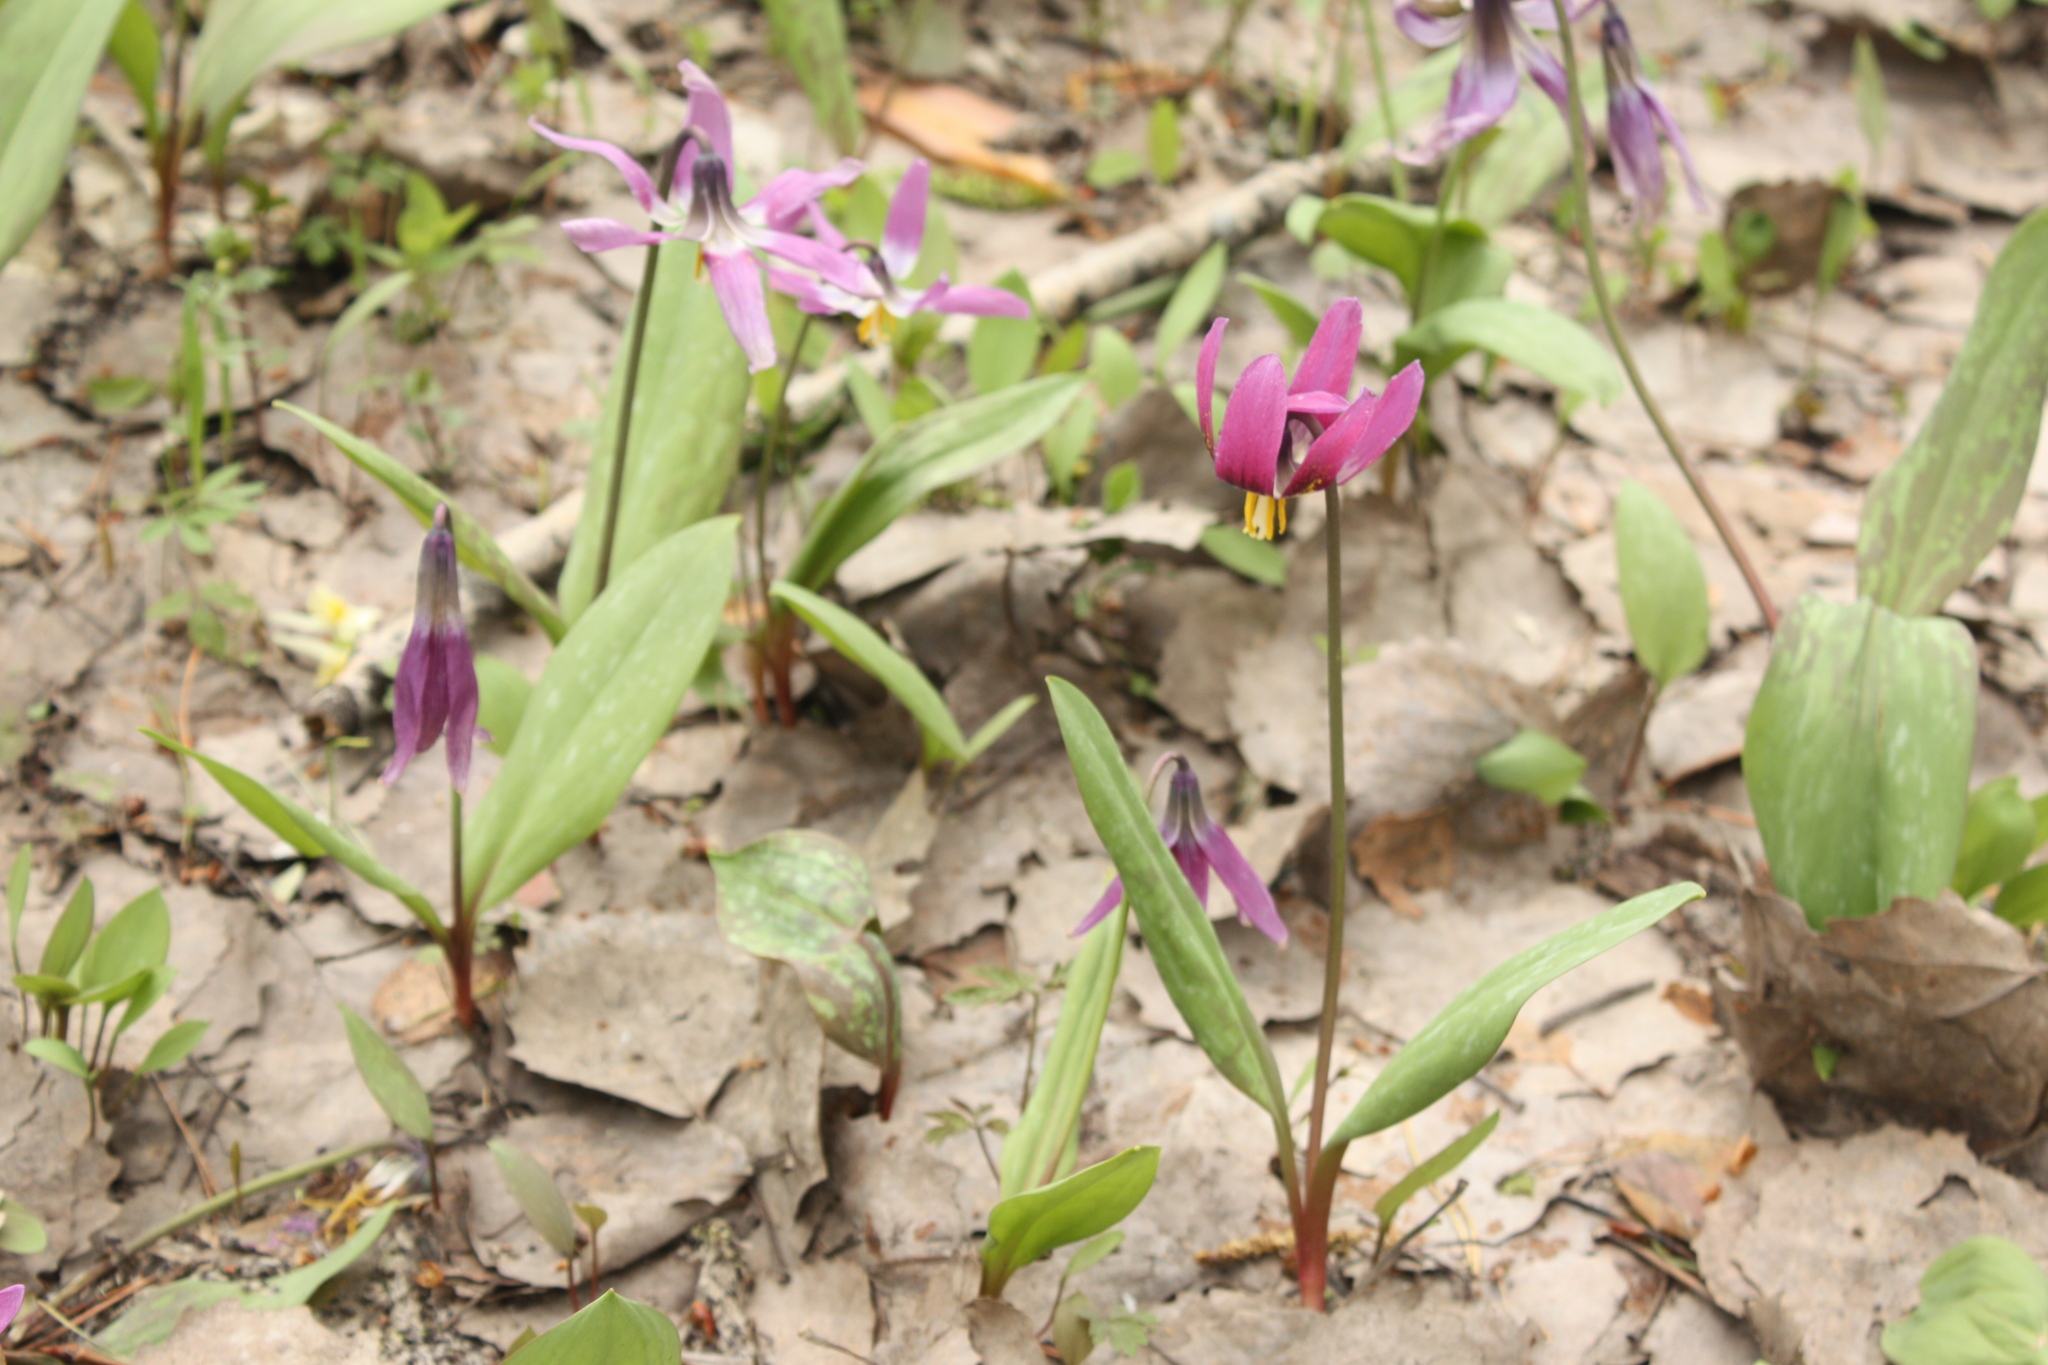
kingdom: Plantae
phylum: Tracheophyta
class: Liliopsida
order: Liliales
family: Liliaceae
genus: Erythronium
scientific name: Erythronium sibiricum
